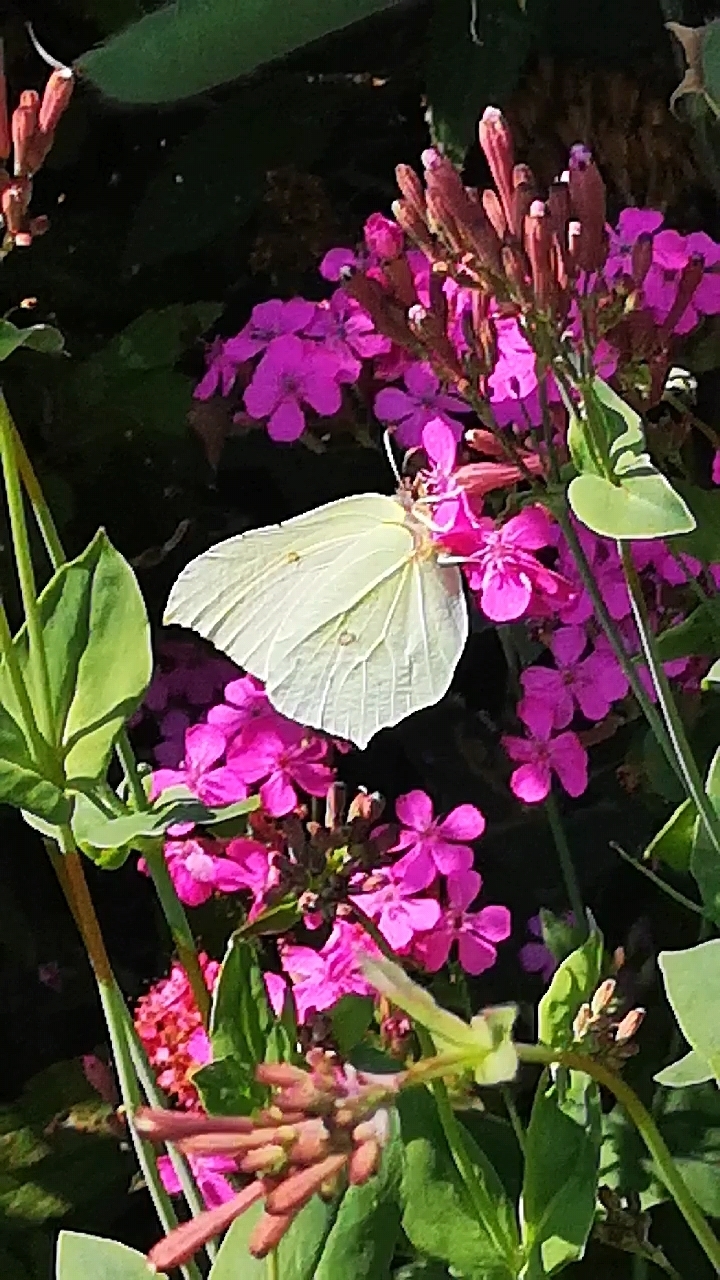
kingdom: Animalia
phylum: Arthropoda
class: Insecta
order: Lepidoptera
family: Pieridae
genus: Gonepteryx
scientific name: Gonepteryx rhamni
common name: Brimstone
